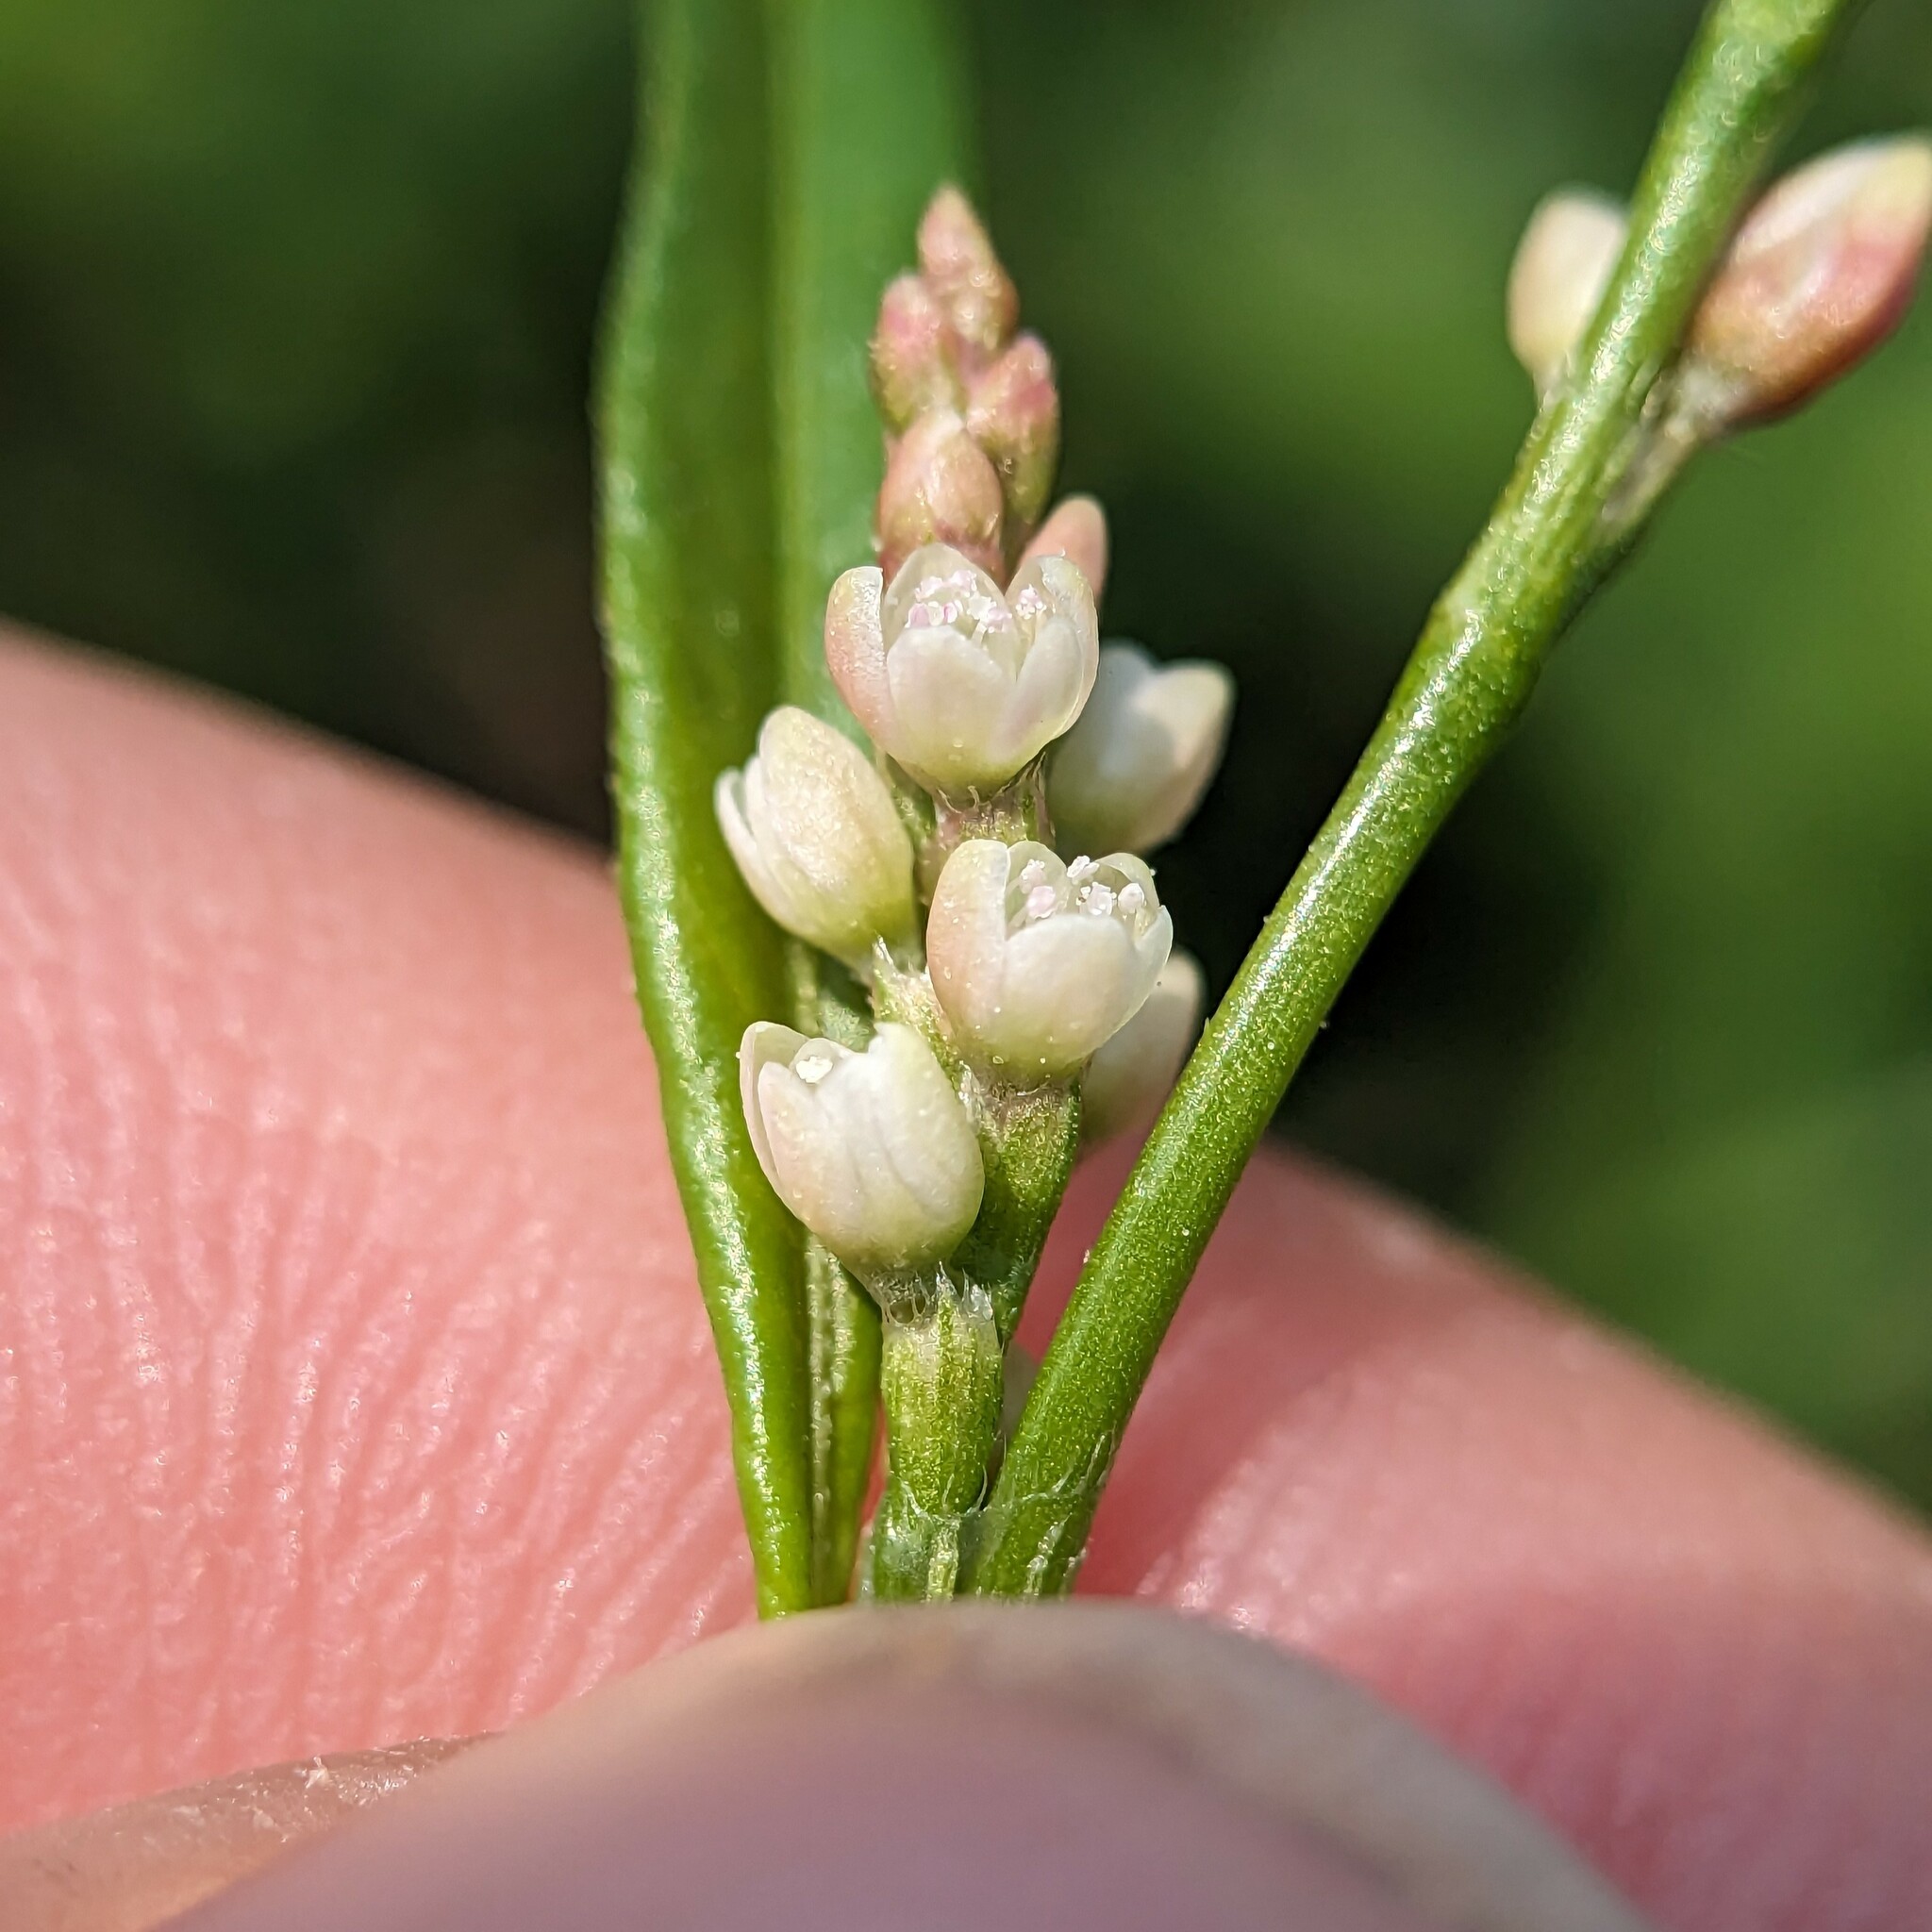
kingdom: Plantae
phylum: Tracheophyta
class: Magnoliopsida
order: Caryophyllales
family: Polygonaceae
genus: Persicaria
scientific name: Persicaria maculosa
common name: Redshank
